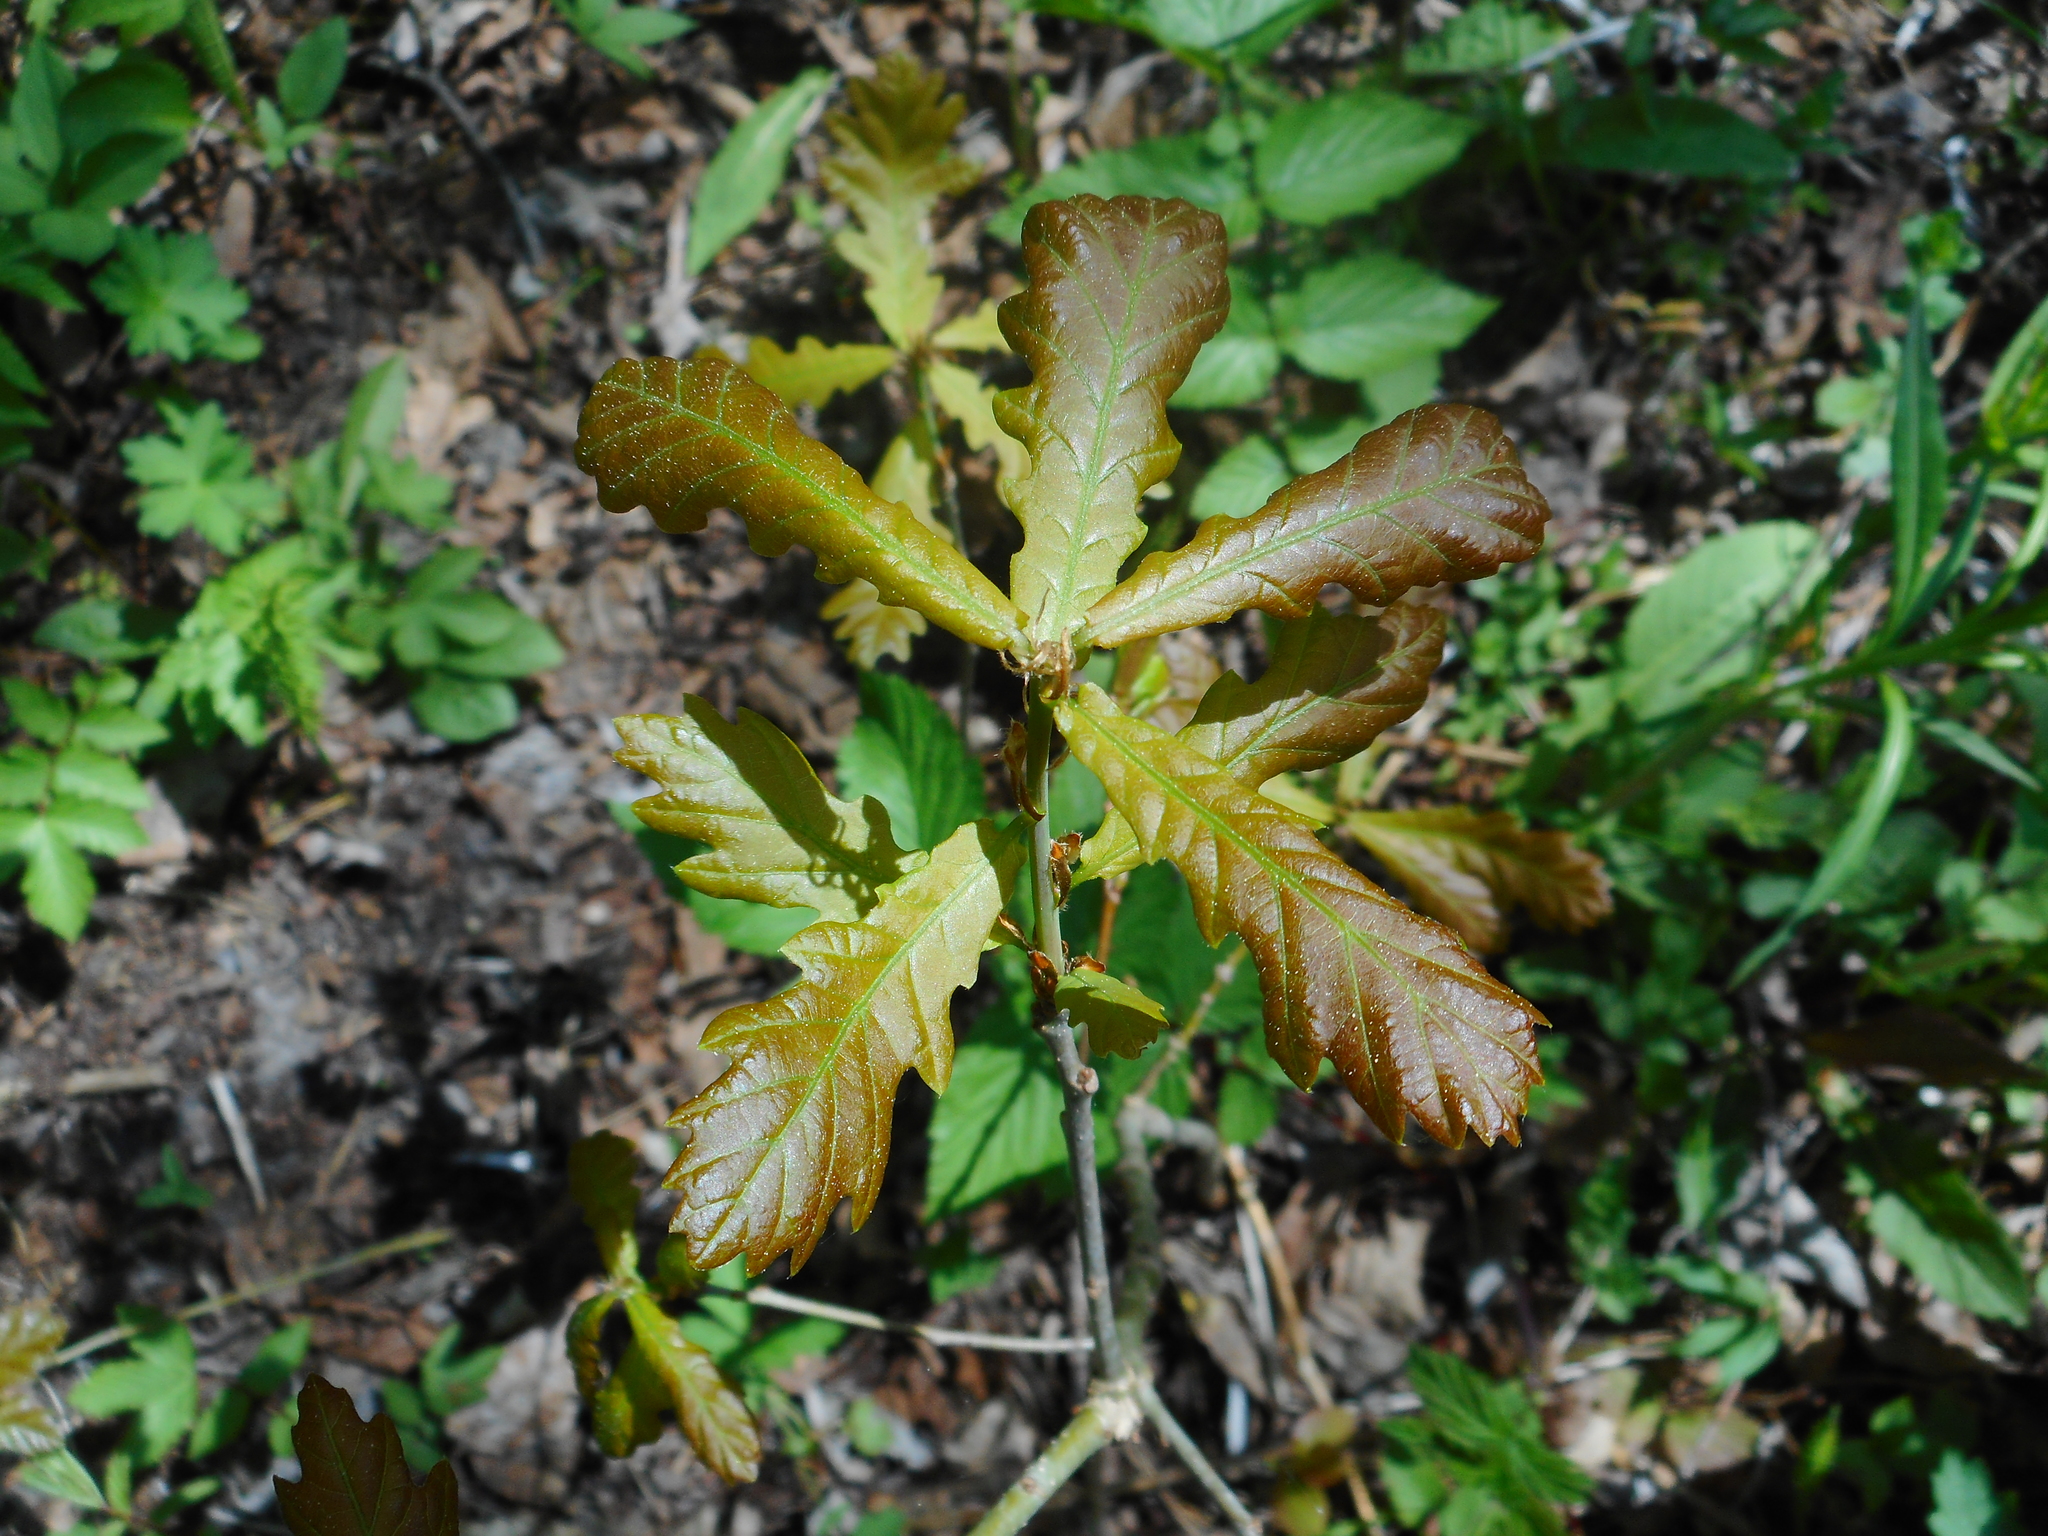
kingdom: Plantae
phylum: Tracheophyta
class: Magnoliopsida
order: Fagales
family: Fagaceae
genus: Quercus
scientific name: Quercus robur
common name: Pedunculate oak
